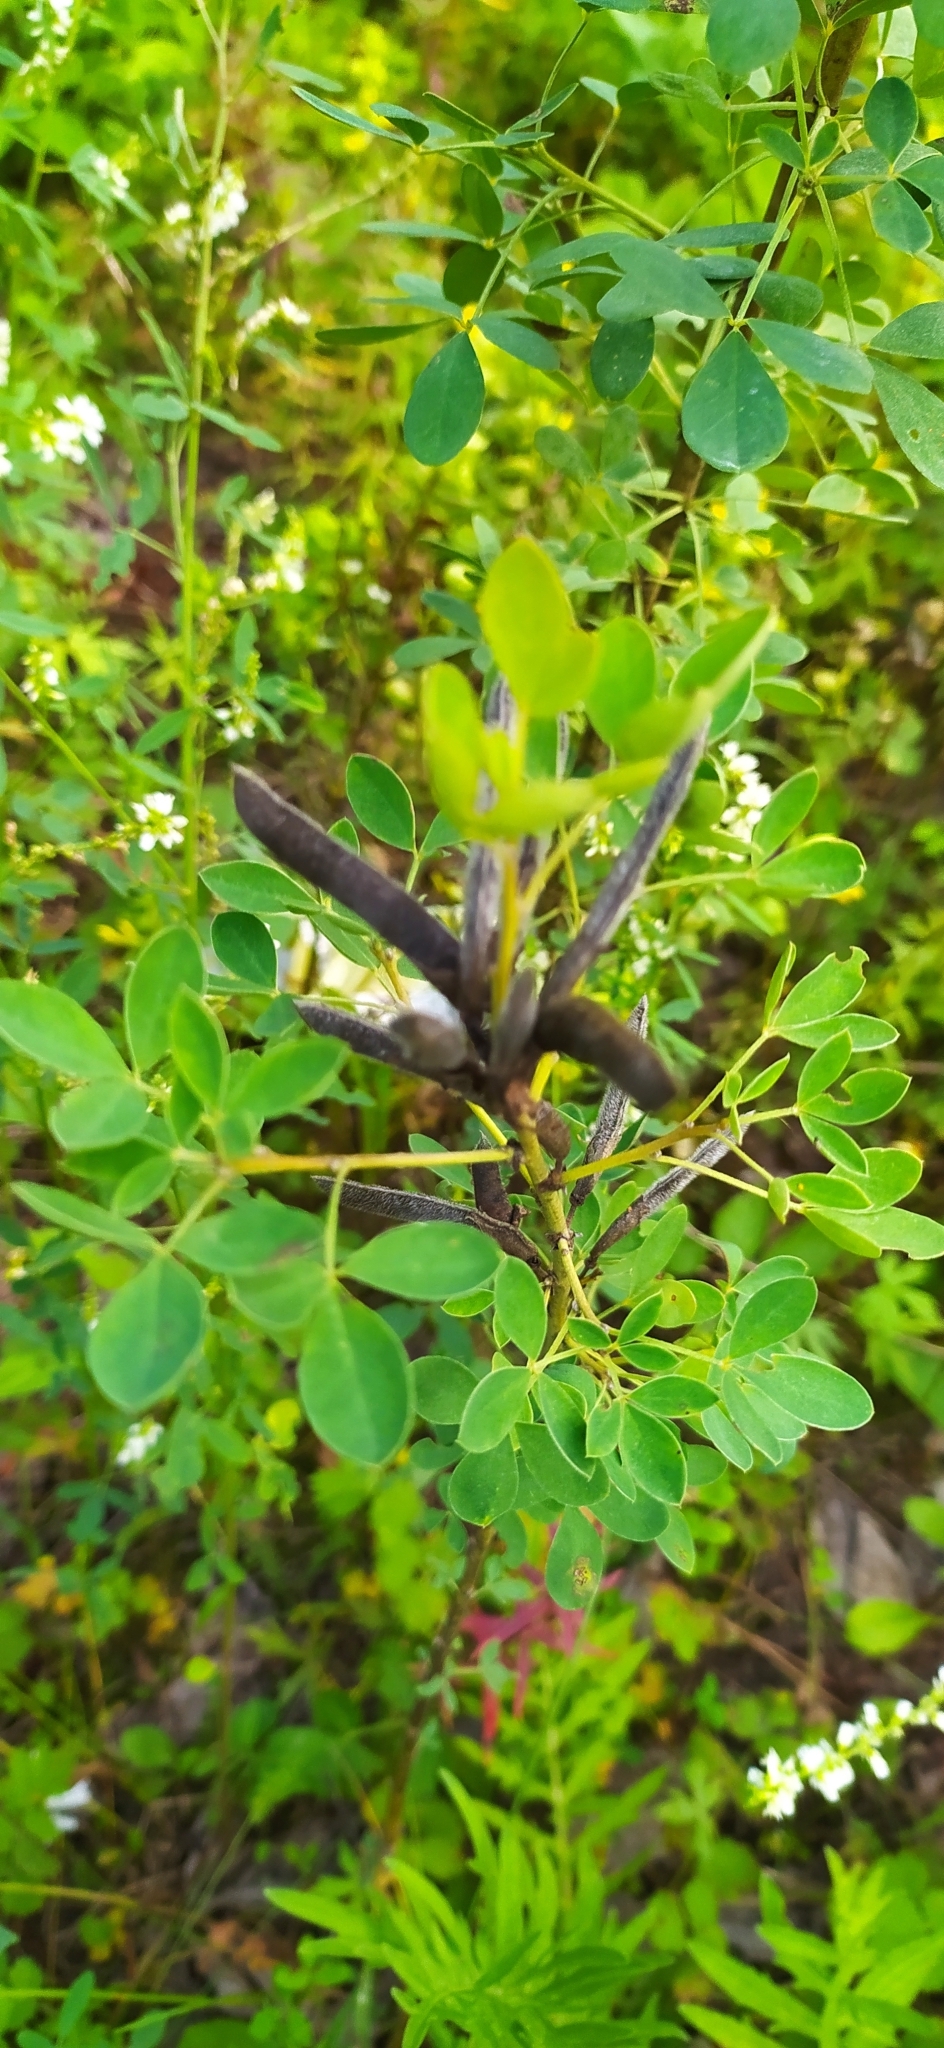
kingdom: Plantae
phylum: Tracheophyta
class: Magnoliopsida
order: Fabales
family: Fabaceae
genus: Chamaecytisus
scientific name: Chamaecytisus ruthenicus
